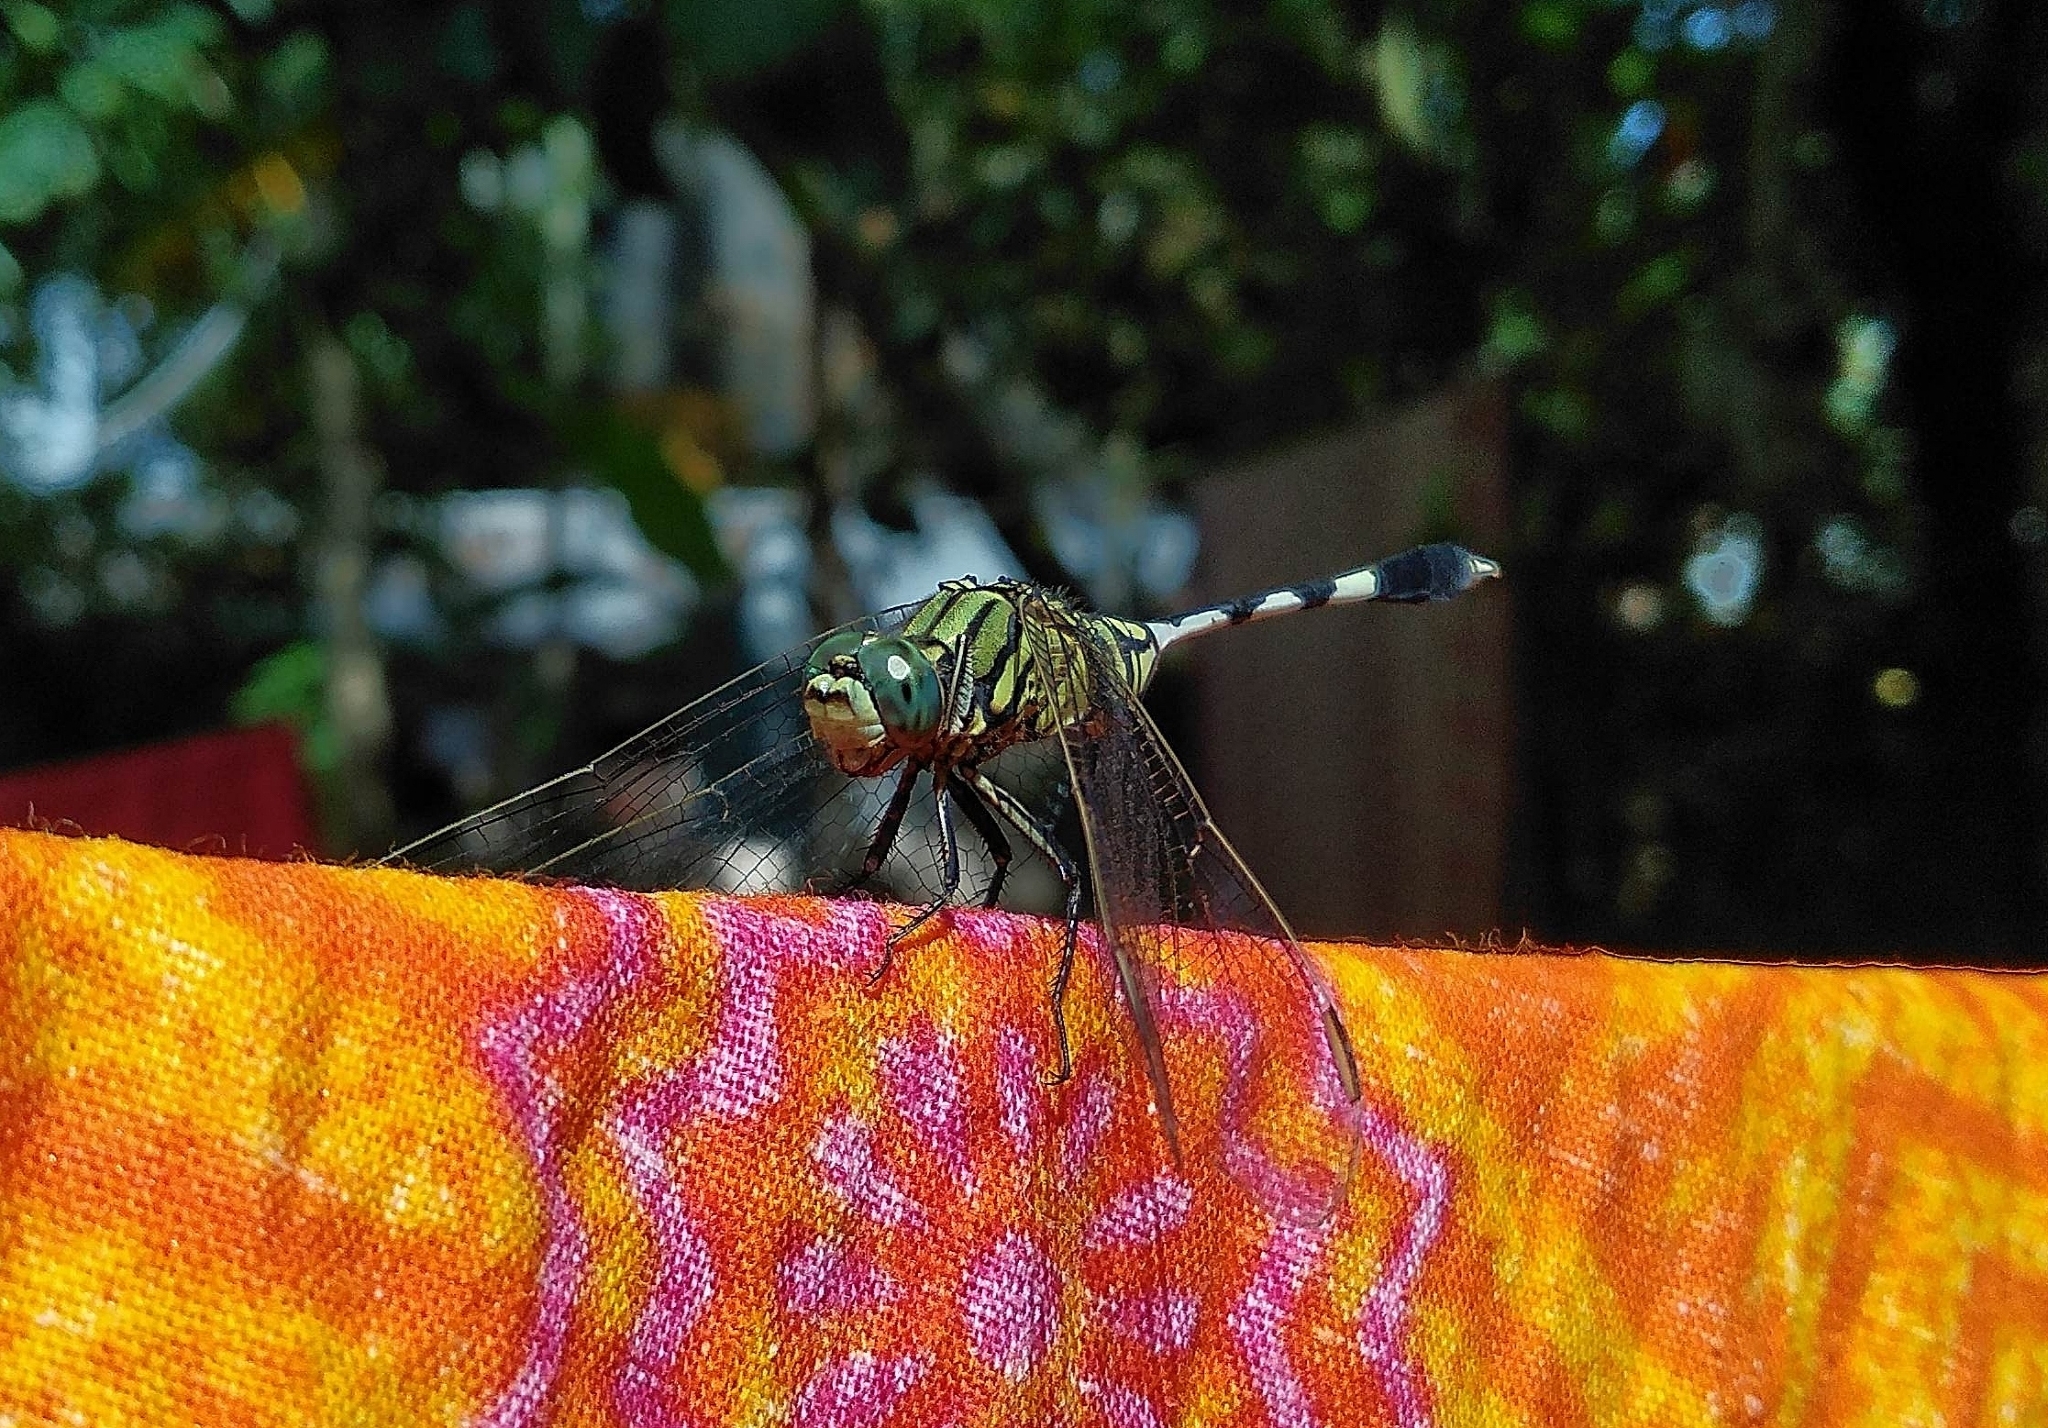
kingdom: Animalia
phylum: Arthropoda
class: Insecta
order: Odonata
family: Libellulidae
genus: Orthetrum
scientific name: Orthetrum sabina
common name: Slender skimmer
